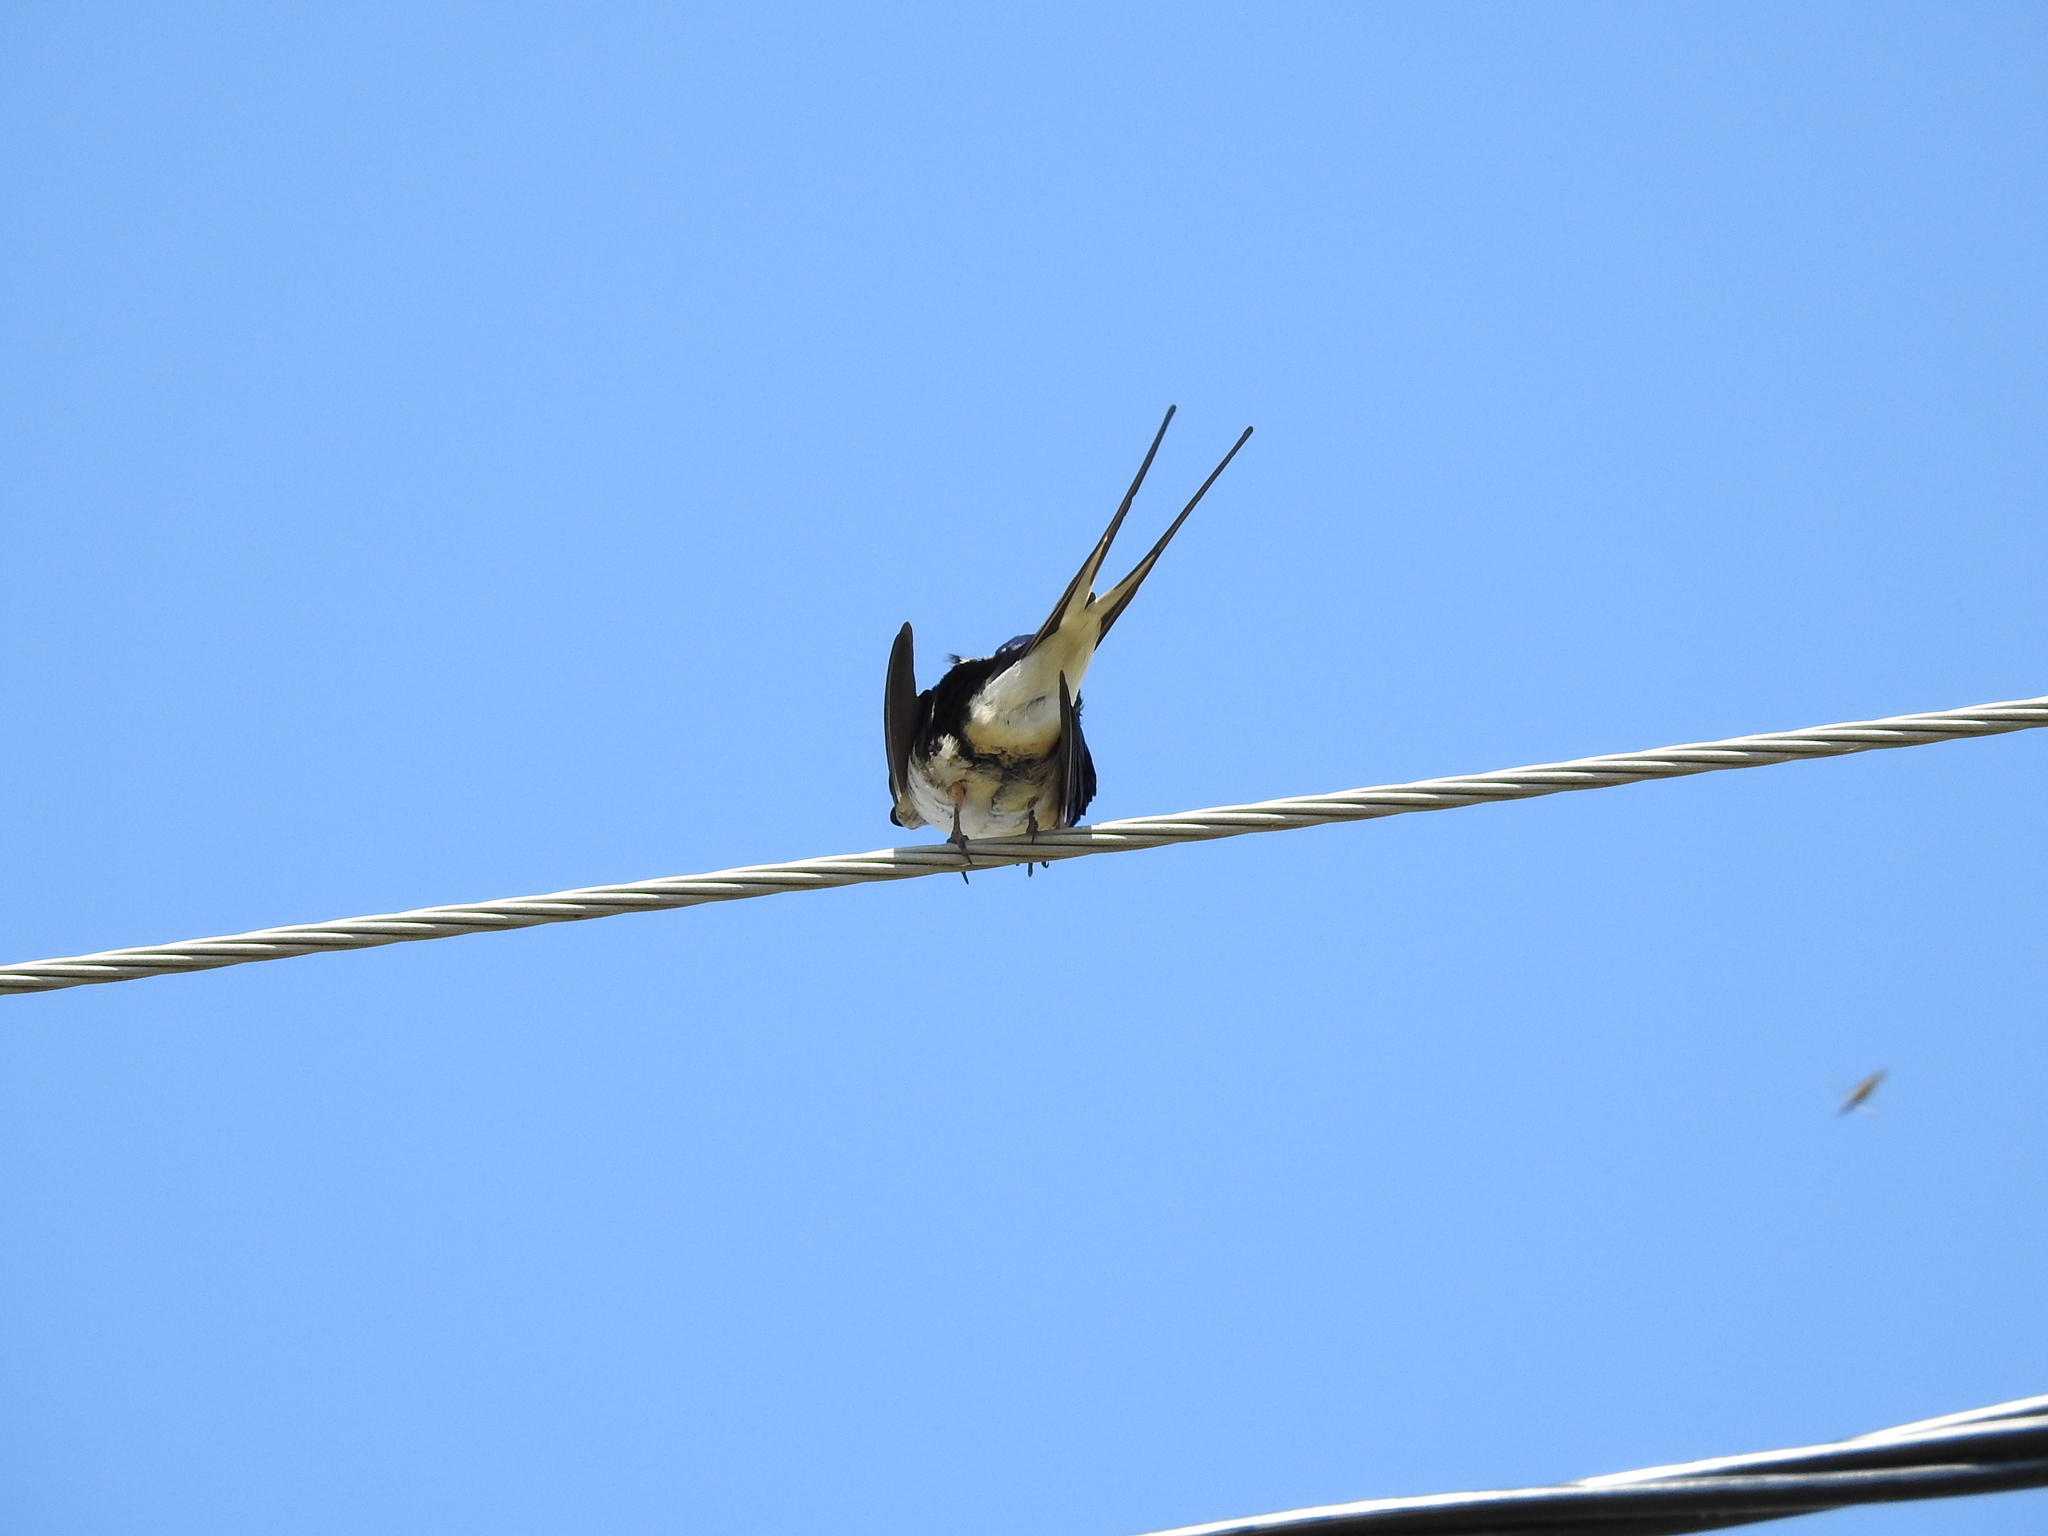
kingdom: Animalia
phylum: Chordata
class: Aves
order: Passeriformes
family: Hirundinidae
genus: Hirundo
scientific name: Hirundo rustica
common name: Barn swallow
